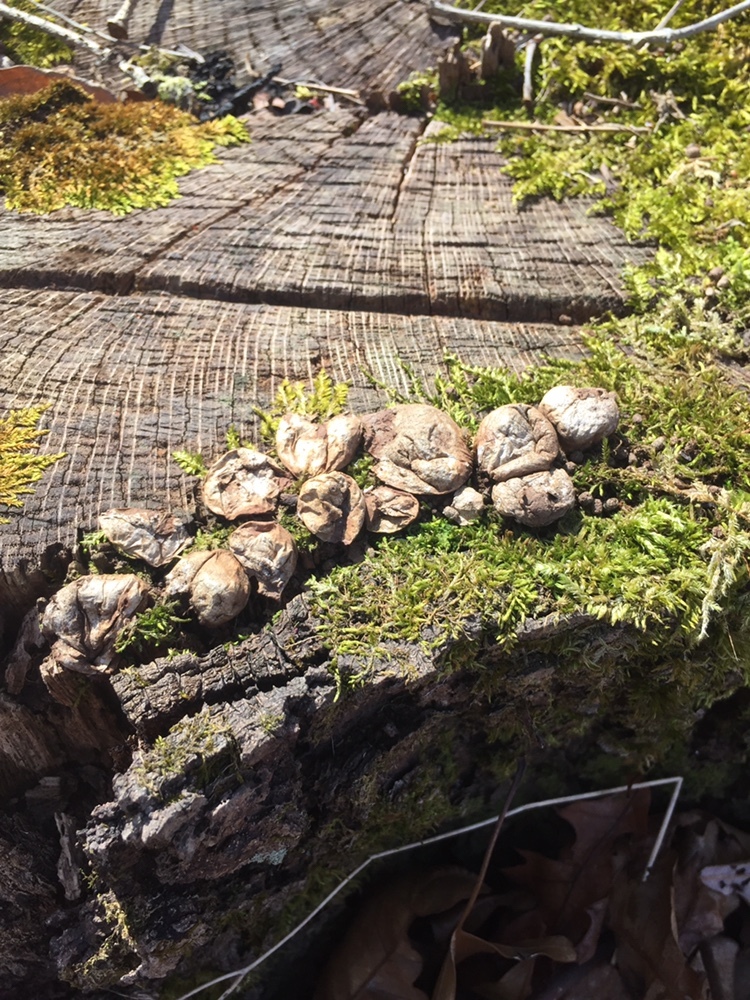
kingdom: Fungi
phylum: Basidiomycota
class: Agaricomycetes
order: Agaricales
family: Lycoperdaceae
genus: Apioperdon
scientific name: Apioperdon pyriforme
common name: Pear-shaped puffball
